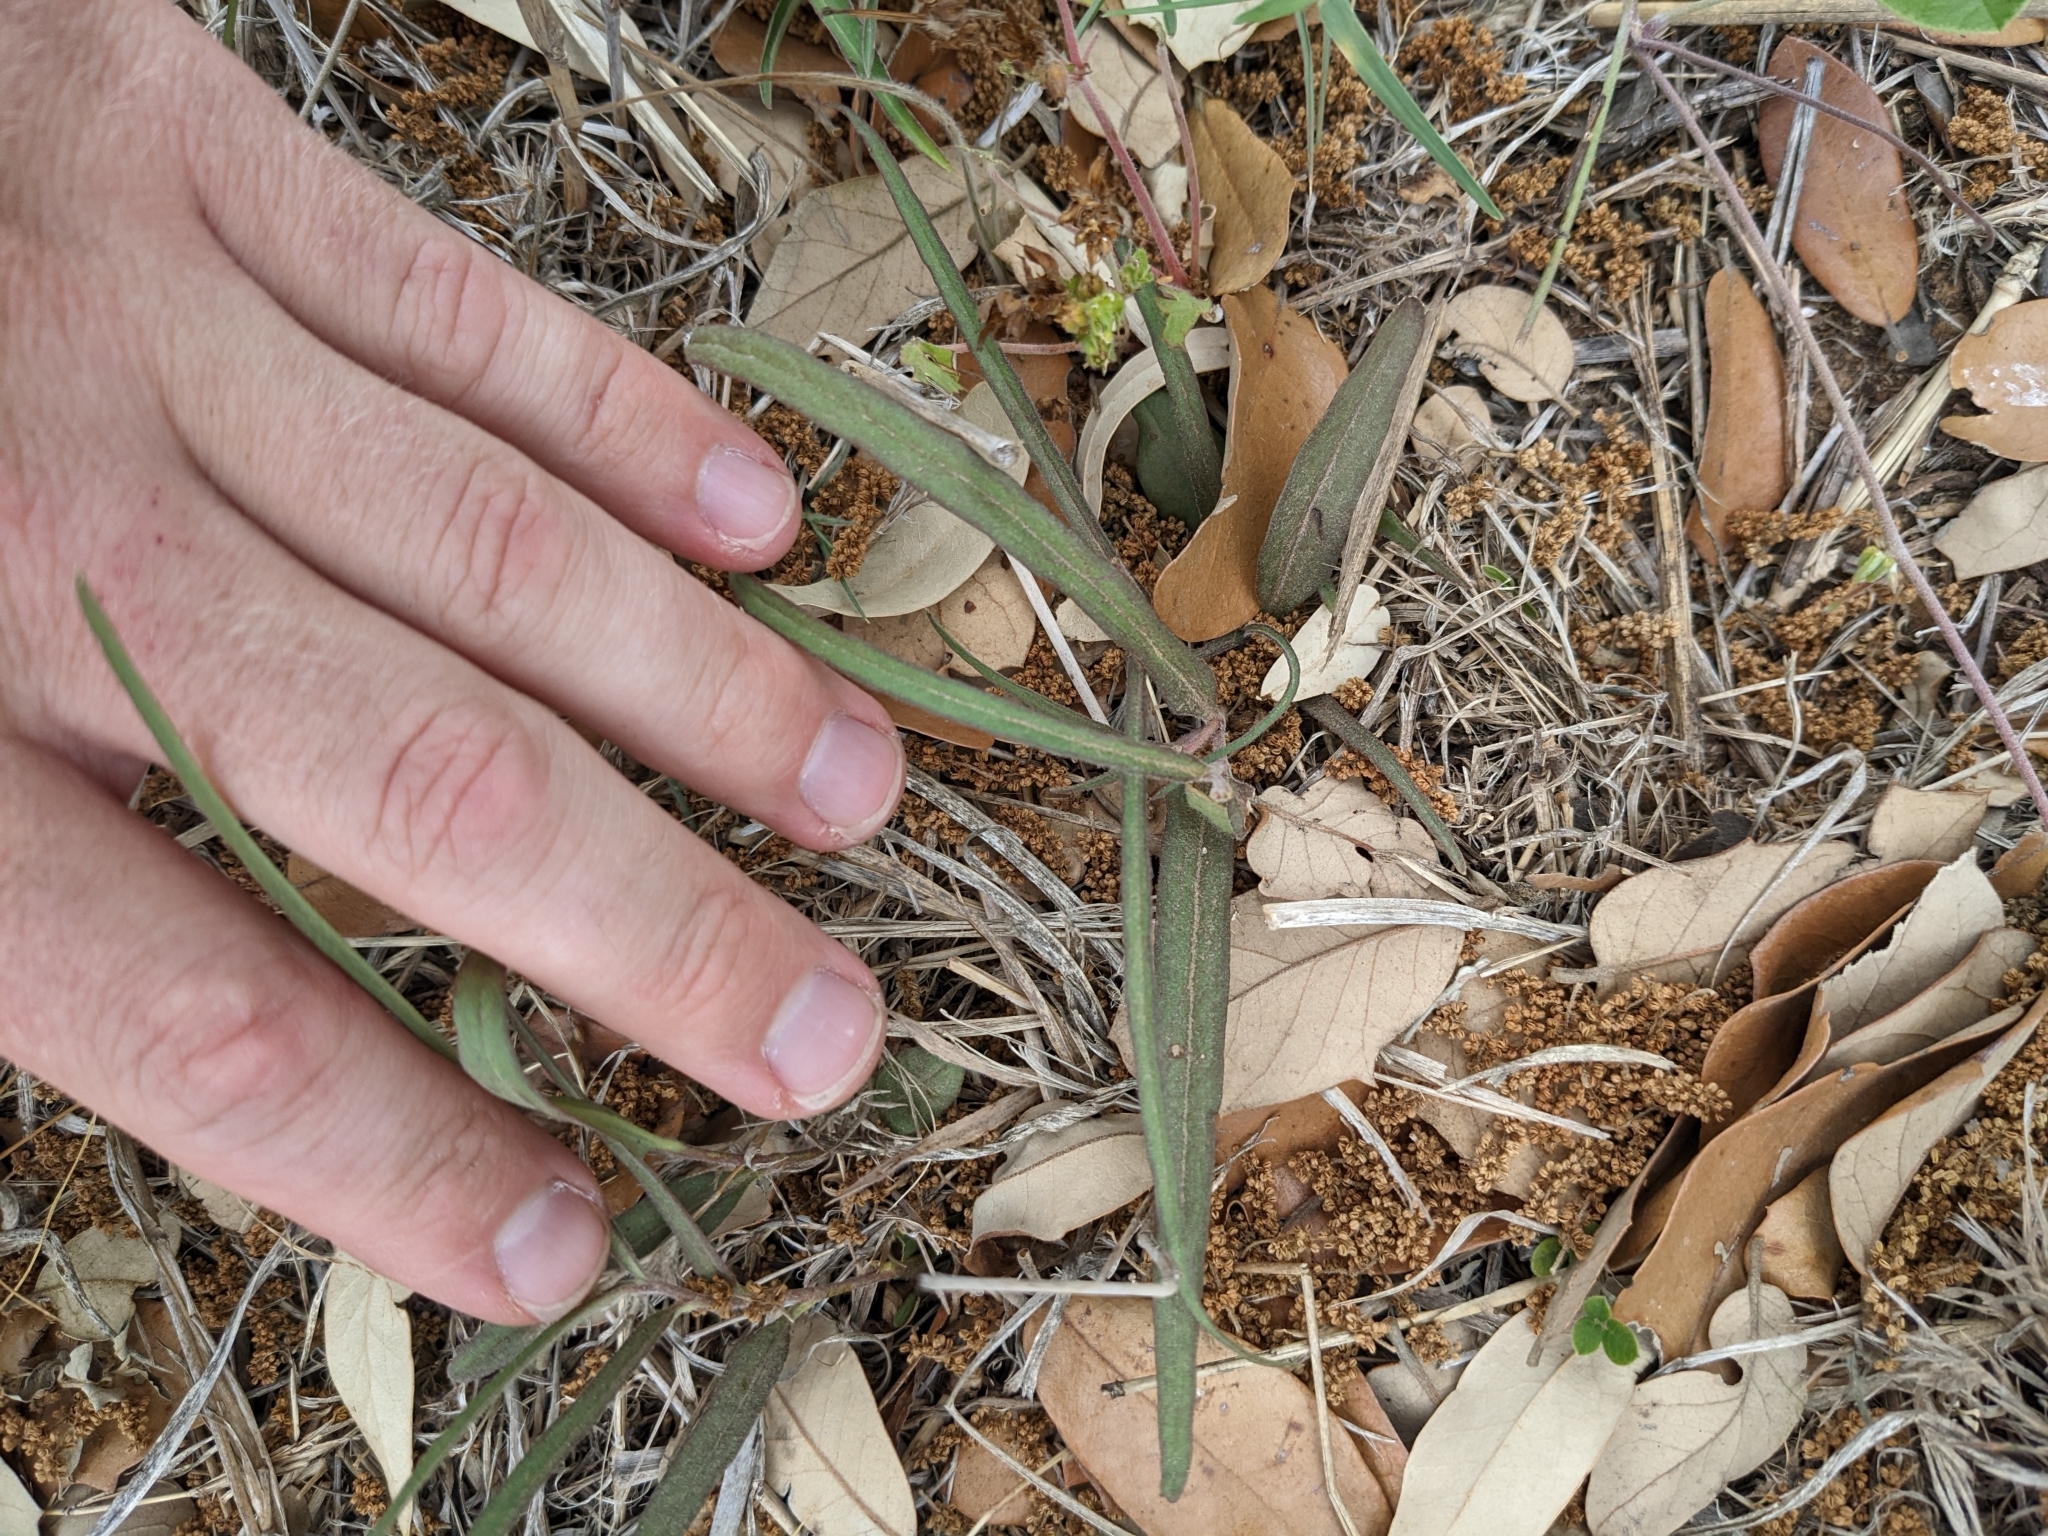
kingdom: Plantae
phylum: Tracheophyta
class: Magnoliopsida
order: Piperales
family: Aristolochiaceae
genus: Aristolochia
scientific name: Aristolochia erecta
